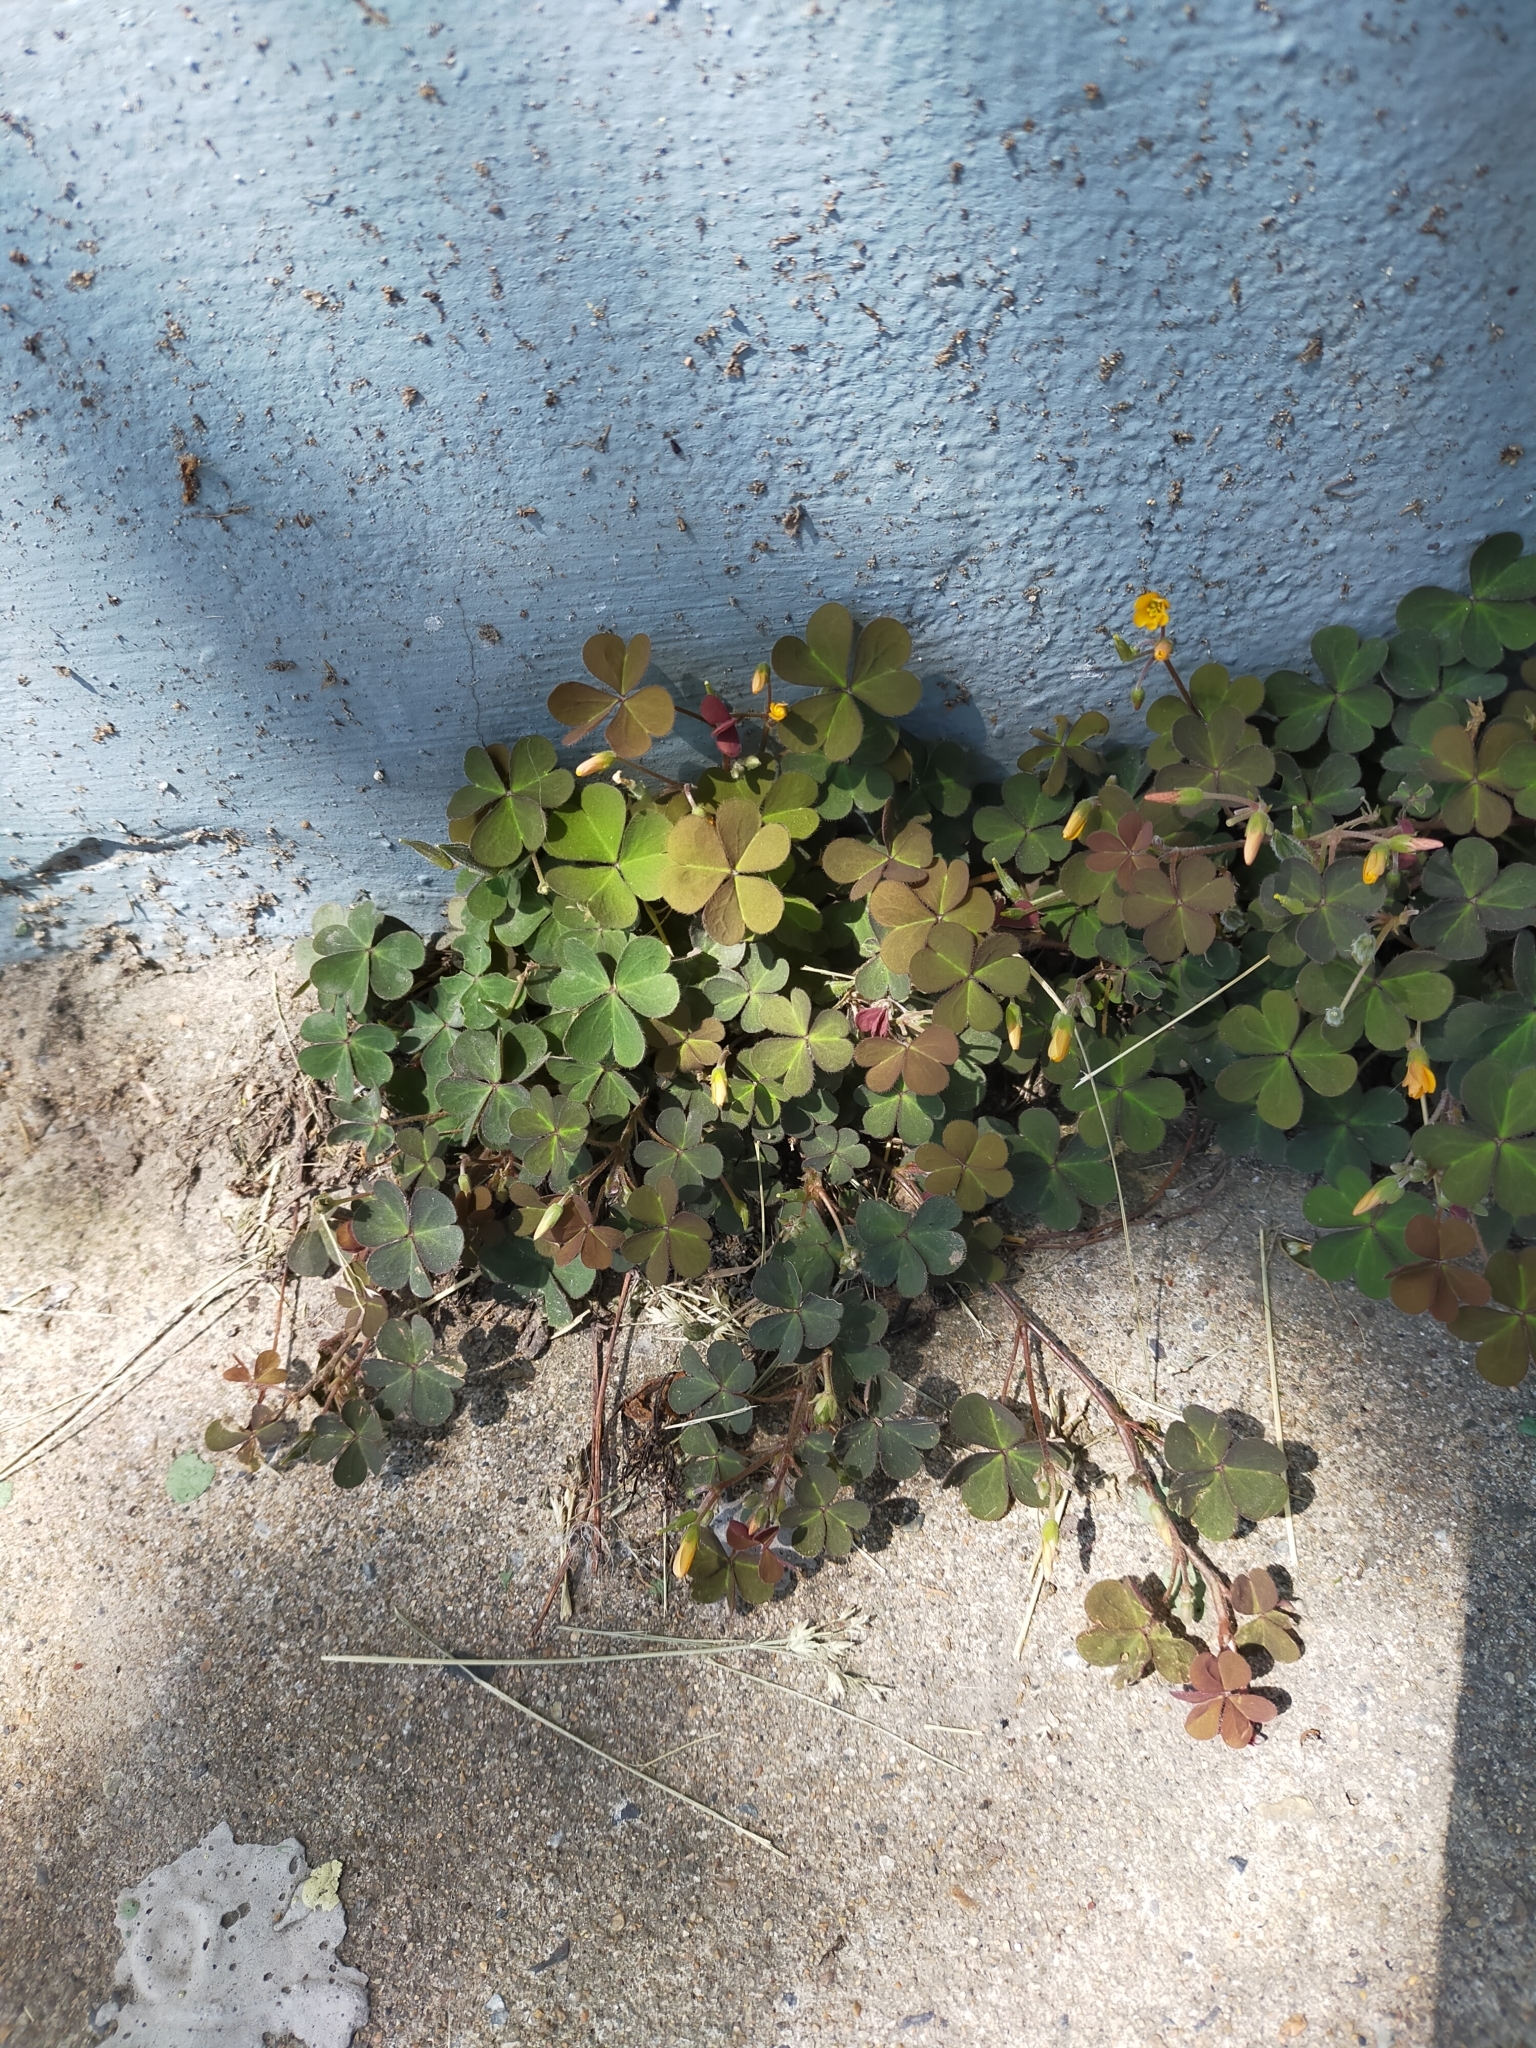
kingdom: Plantae
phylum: Tracheophyta
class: Magnoliopsida
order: Oxalidales
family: Oxalidaceae
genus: Oxalis
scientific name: Oxalis corniculata
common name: Procumbent yellow-sorrel
